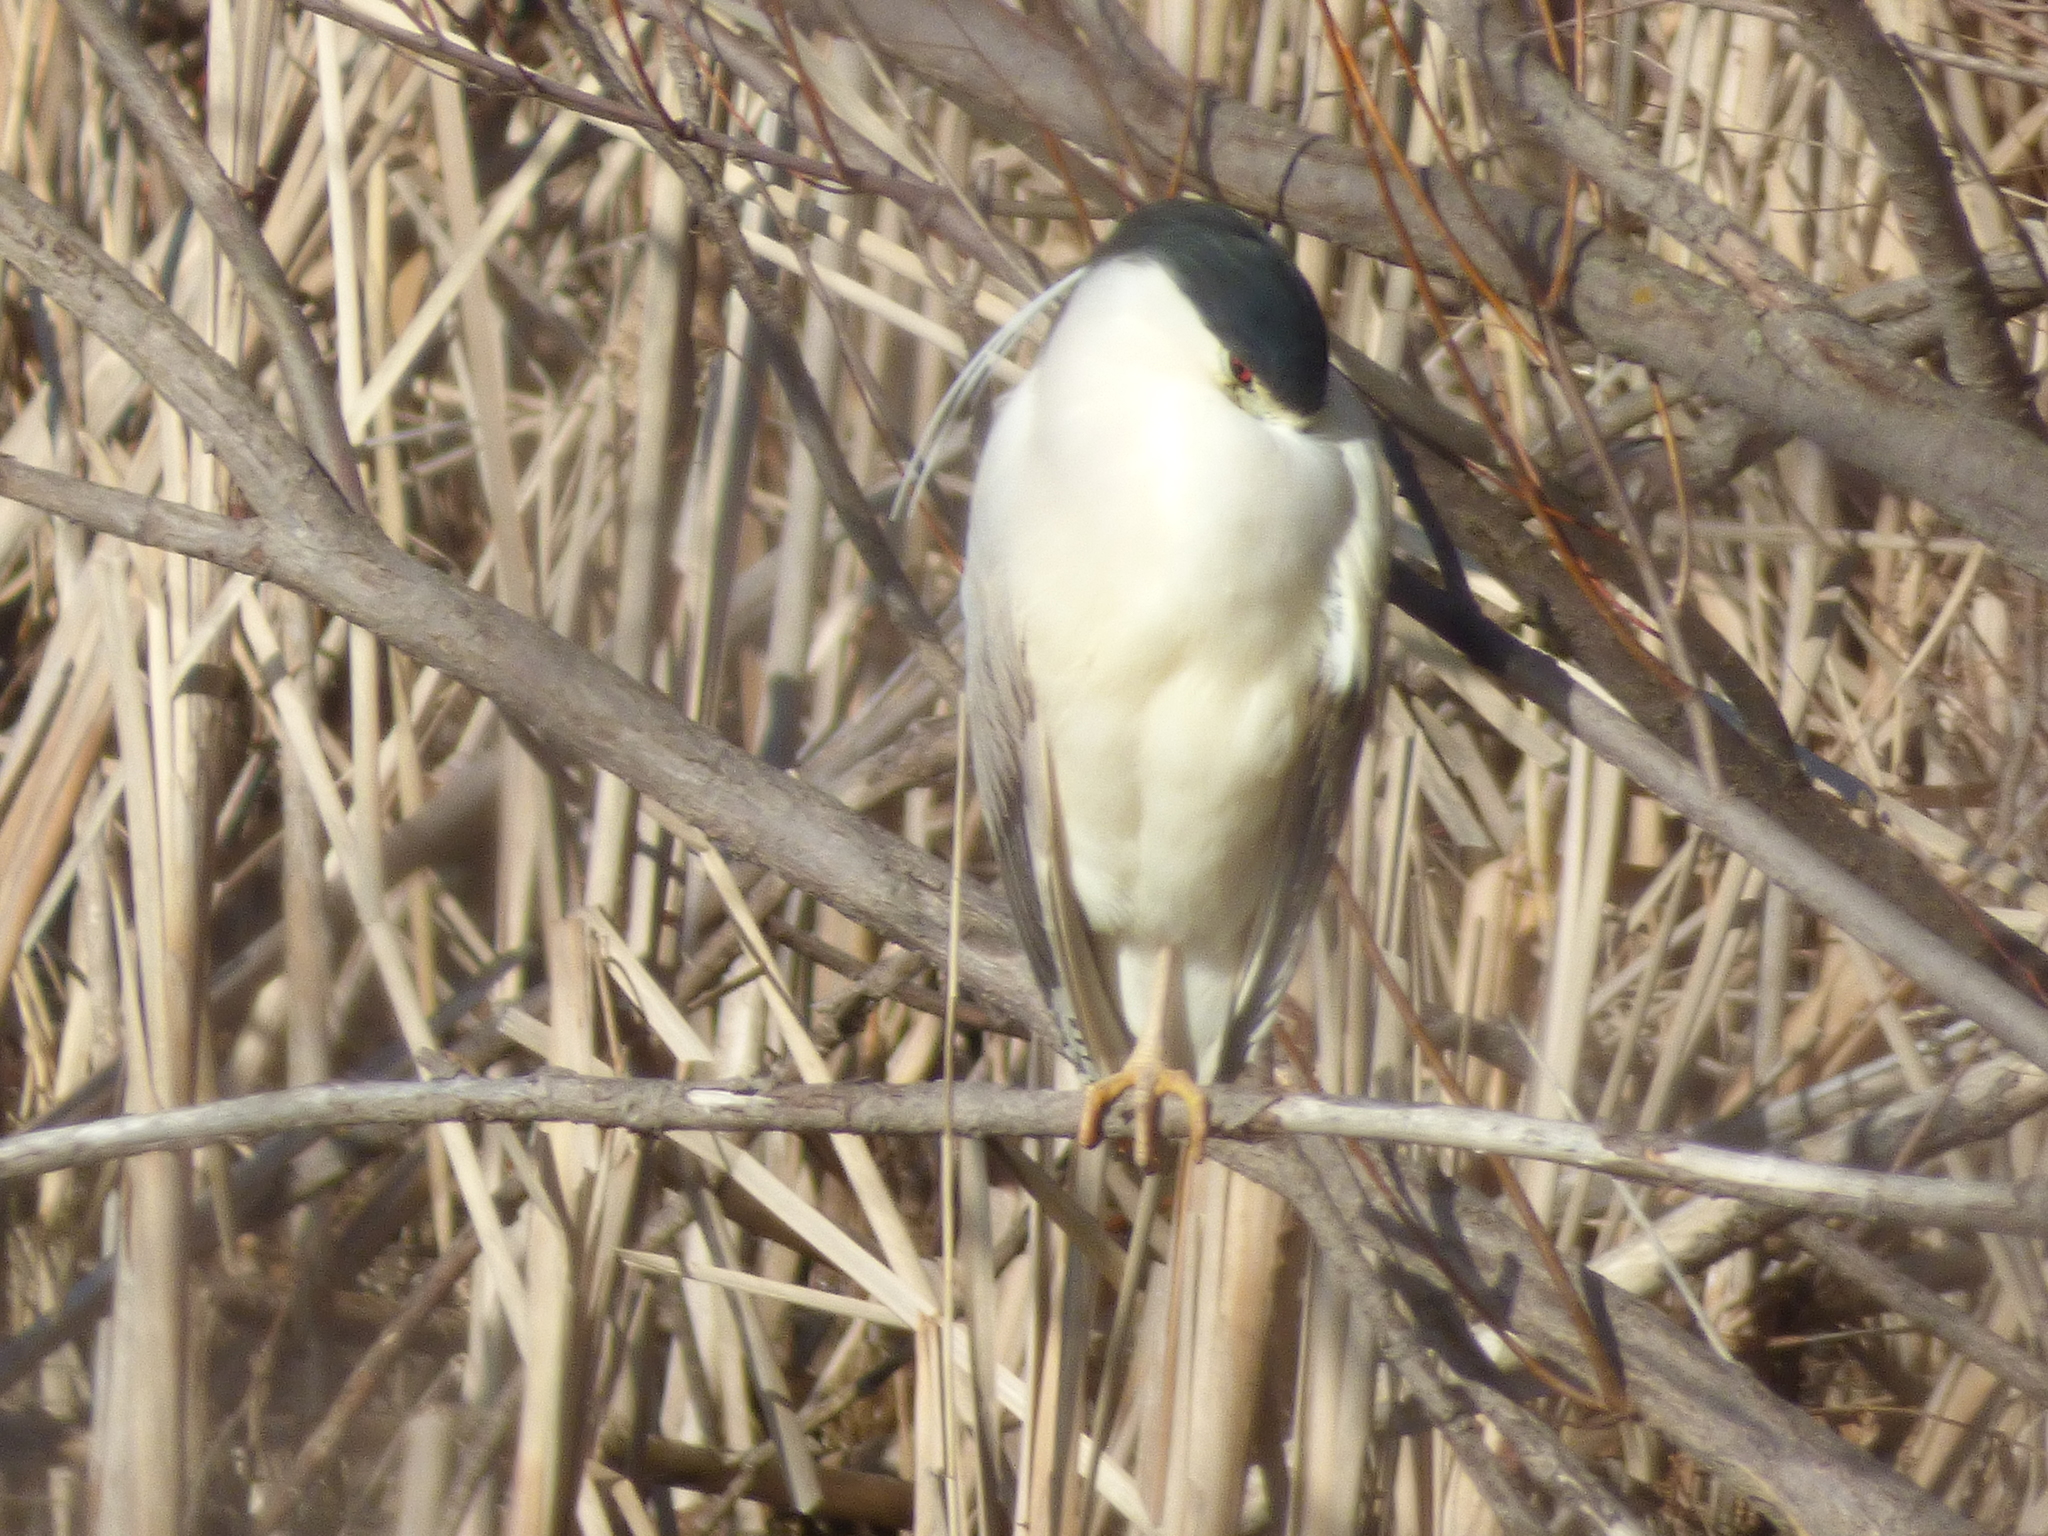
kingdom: Animalia
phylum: Chordata
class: Aves
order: Pelecaniformes
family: Ardeidae
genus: Nycticorax
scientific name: Nycticorax nycticorax
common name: Black-crowned night heron
